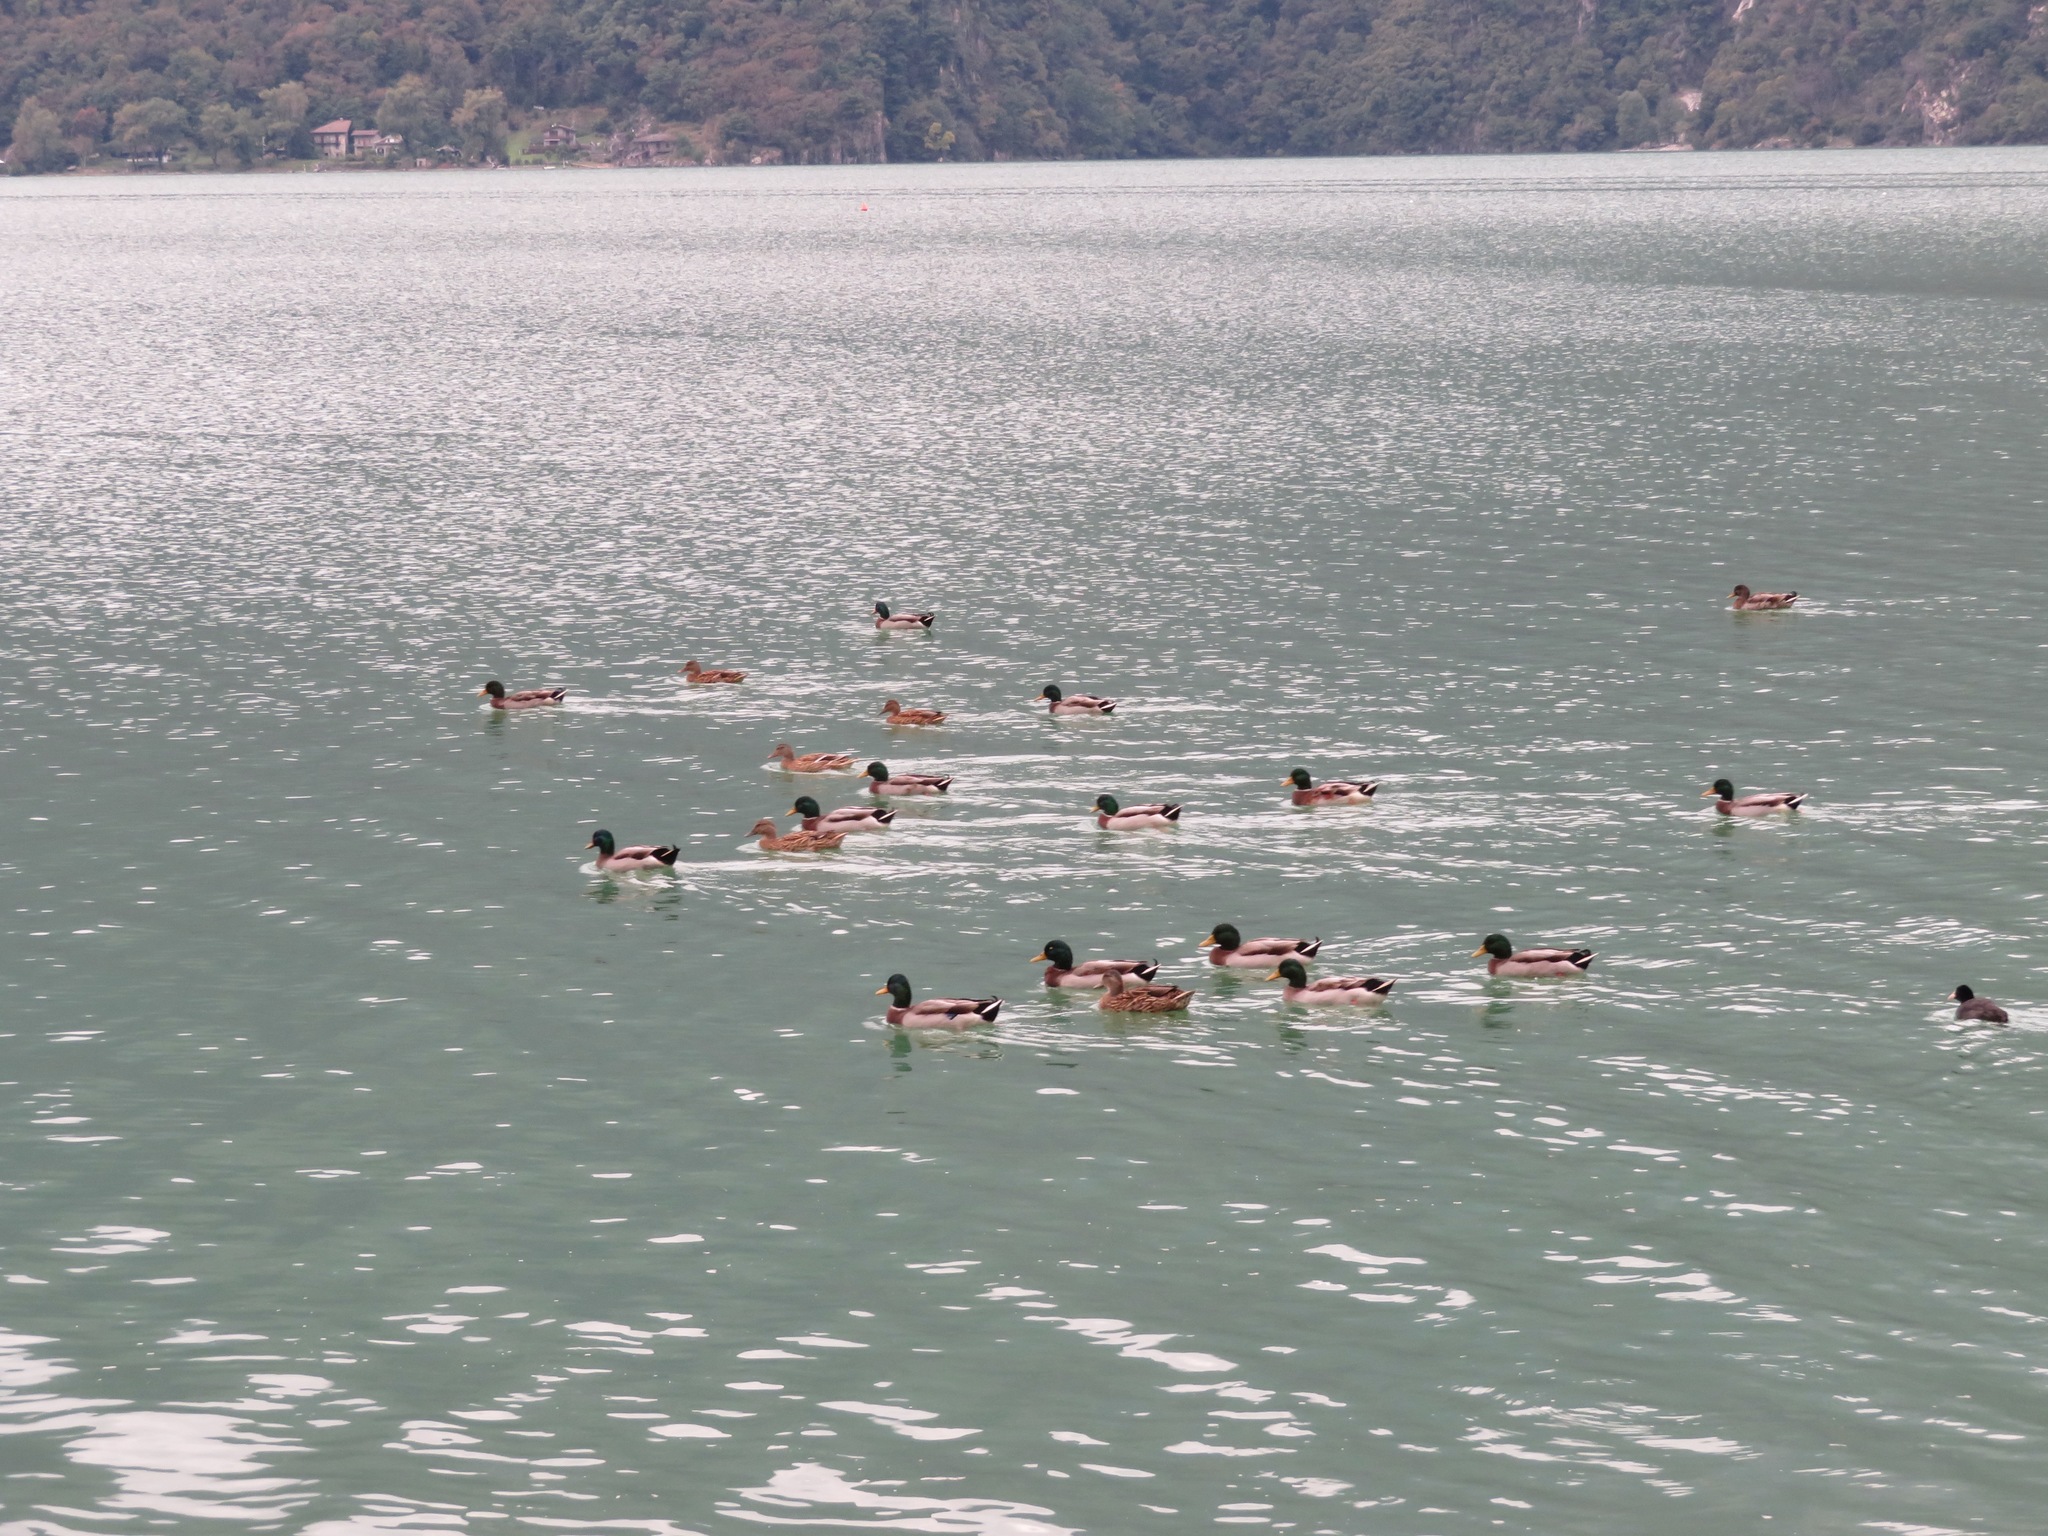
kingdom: Animalia
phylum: Chordata
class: Aves
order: Anseriformes
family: Anatidae
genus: Anas
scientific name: Anas platyrhynchos
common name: Mallard
